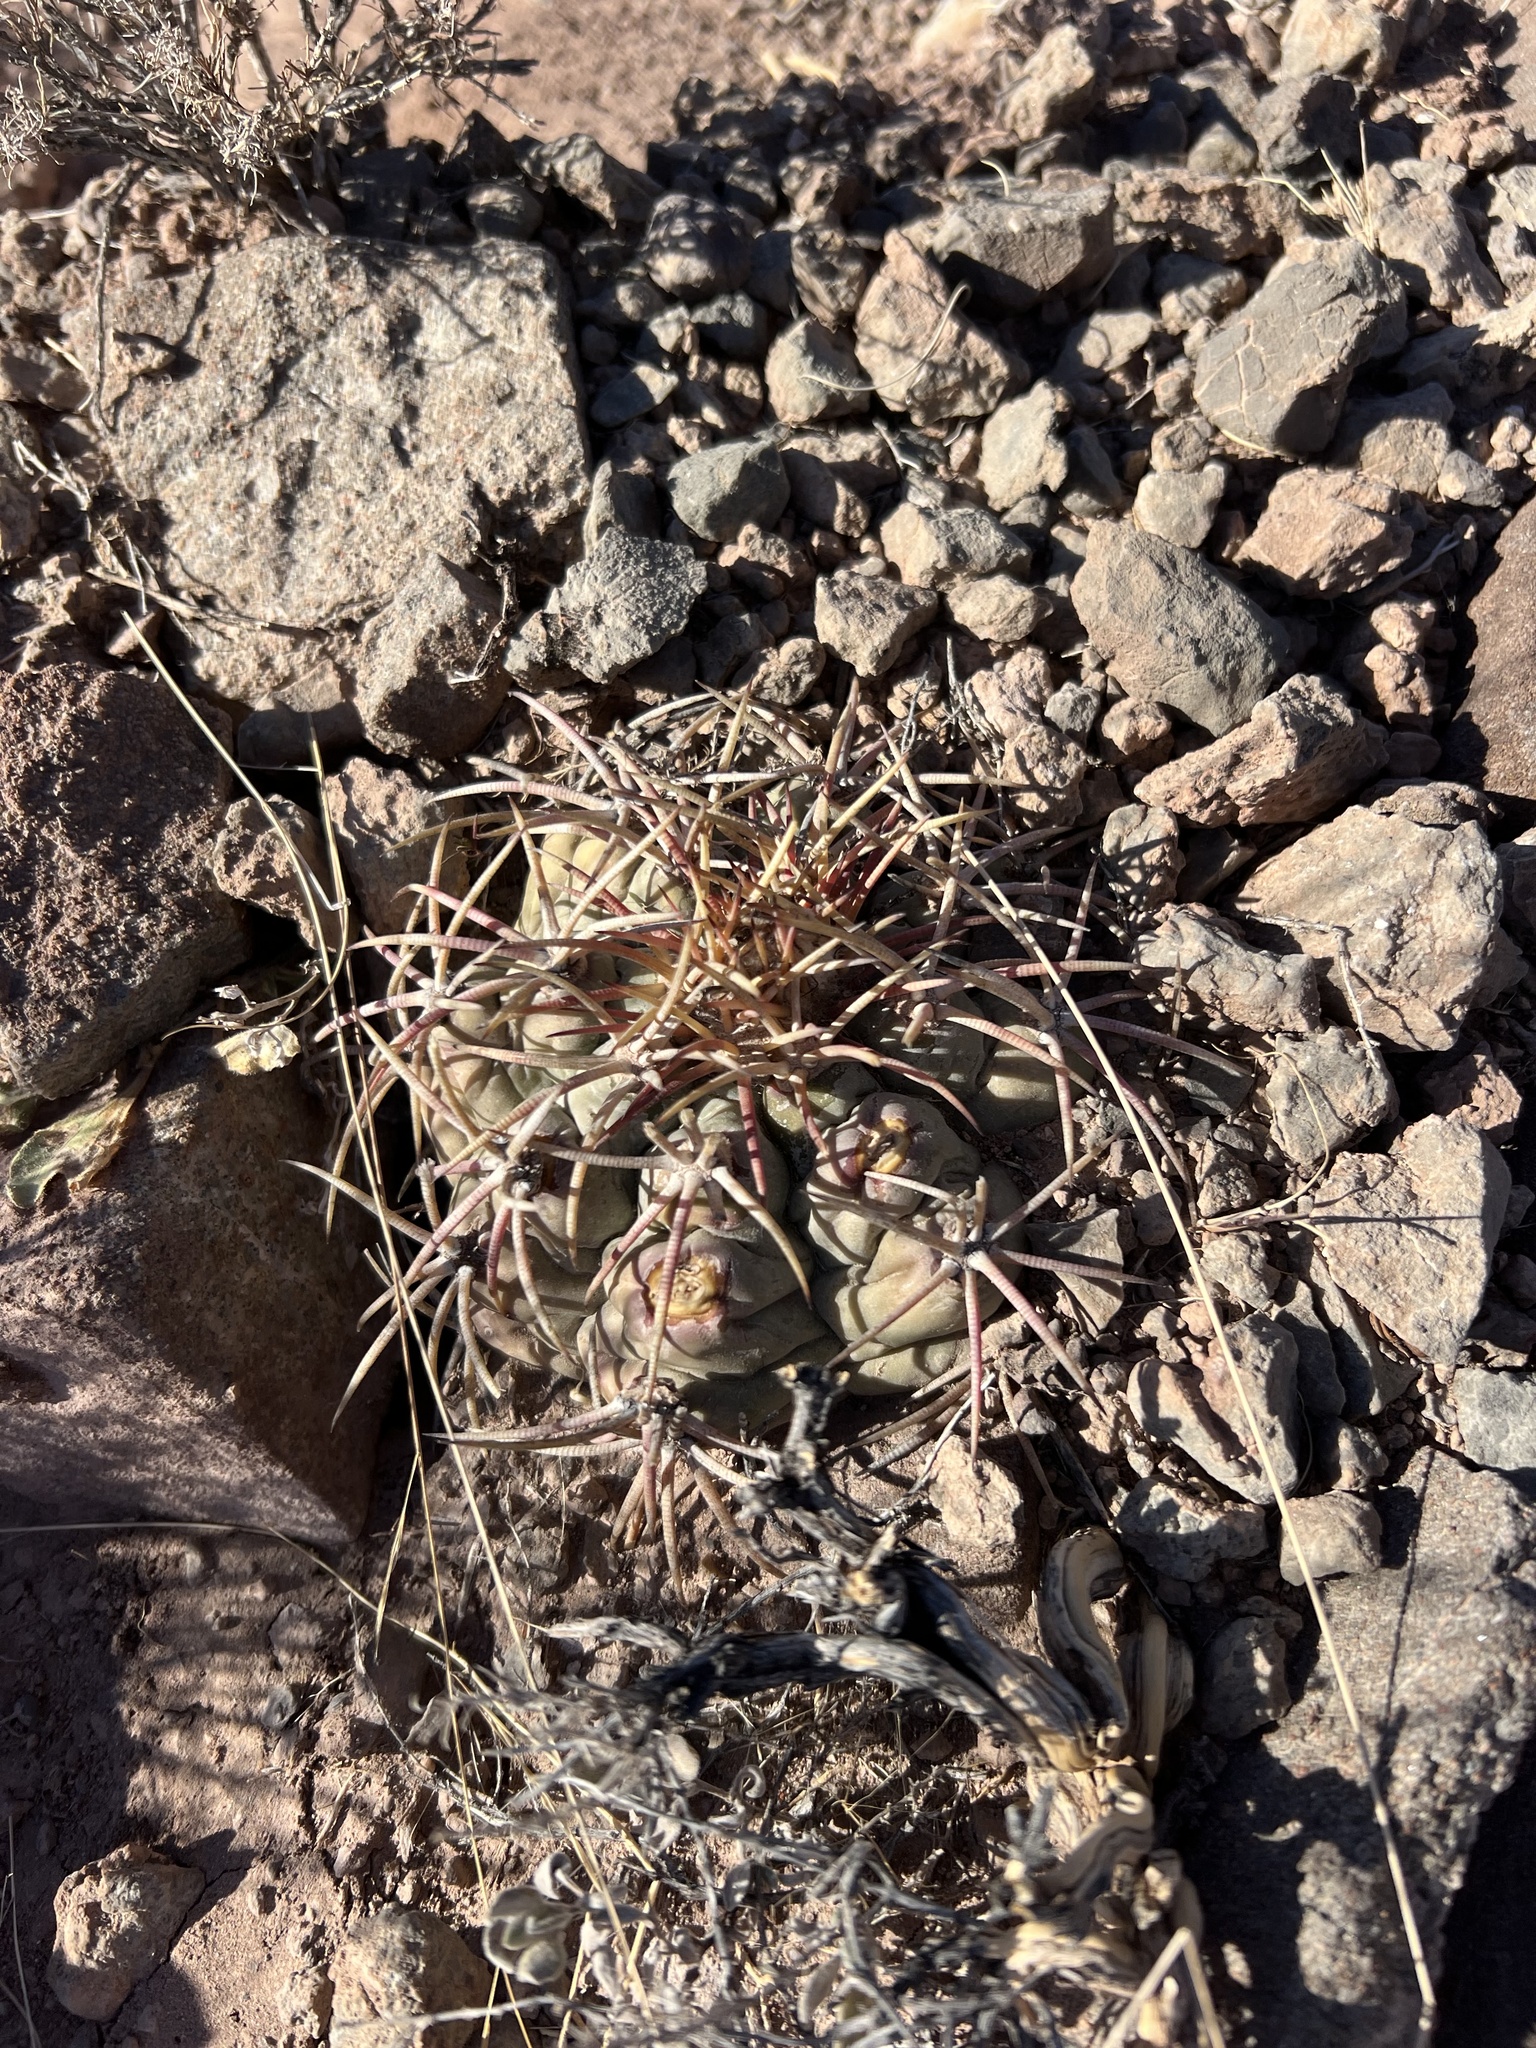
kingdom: Plantae
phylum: Tracheophyta
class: Magnoliopsida
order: Caryophyllales
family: Cactaceae
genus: Echinocactus
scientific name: Echinocactus horizonthalonius
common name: Devilshead
